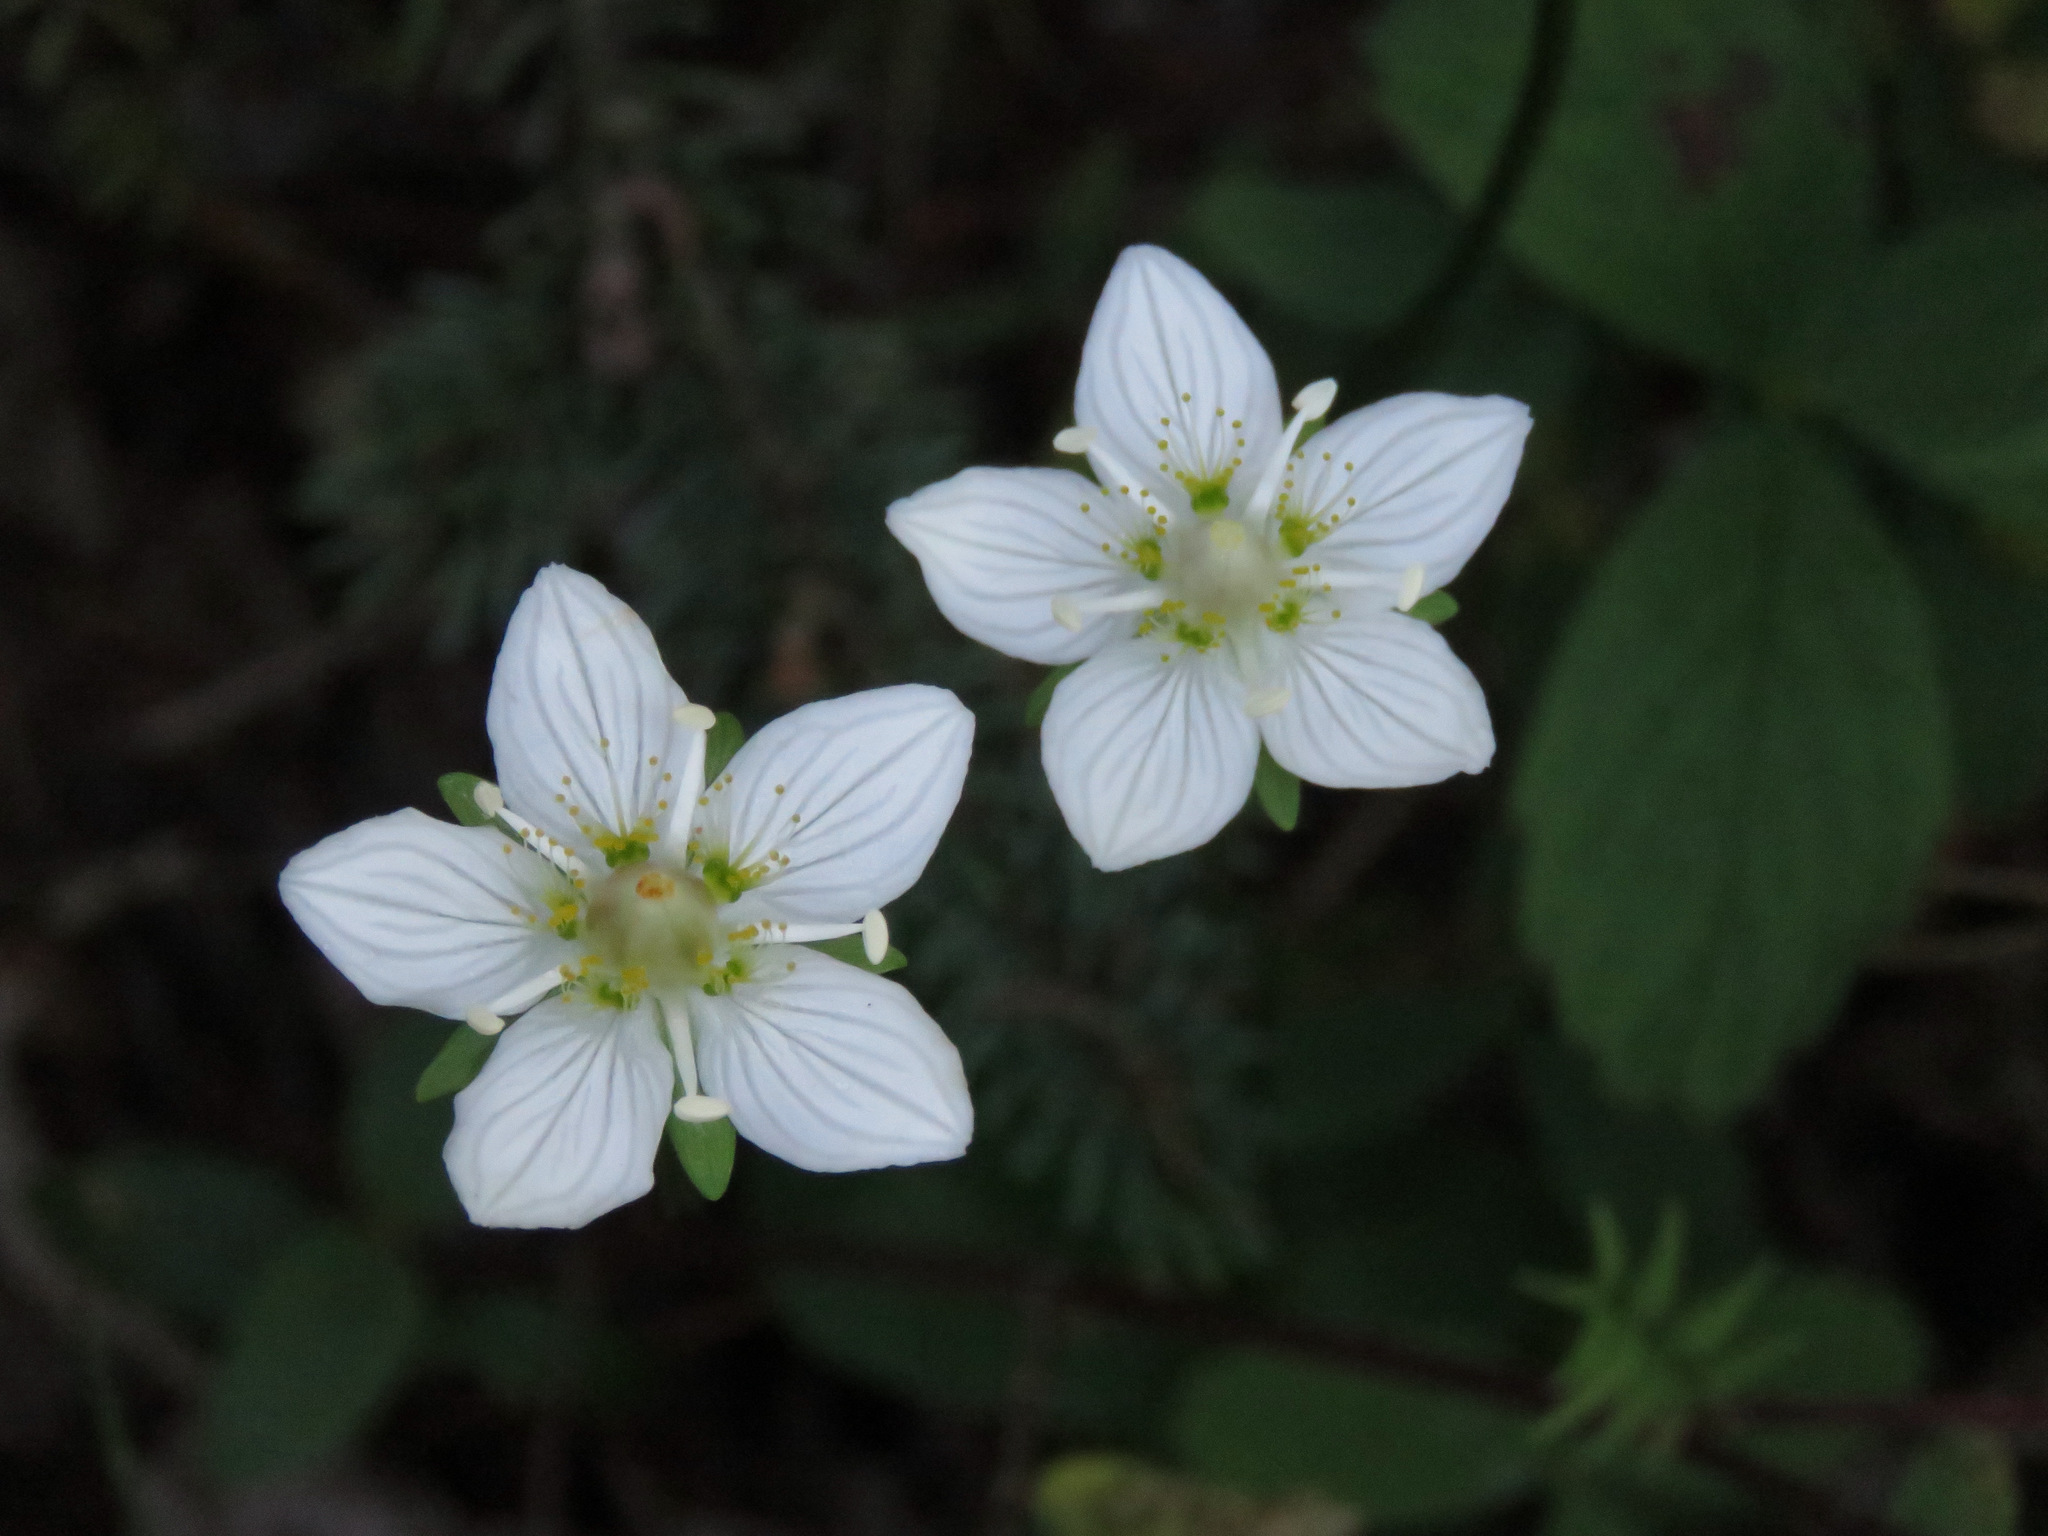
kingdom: Plantae
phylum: Tracheophyta
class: Magnoliopsida
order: Celastrales
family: Parnassiaceae
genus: Parnassia
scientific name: Parnassia palustris
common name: Grass-of-parnassus
